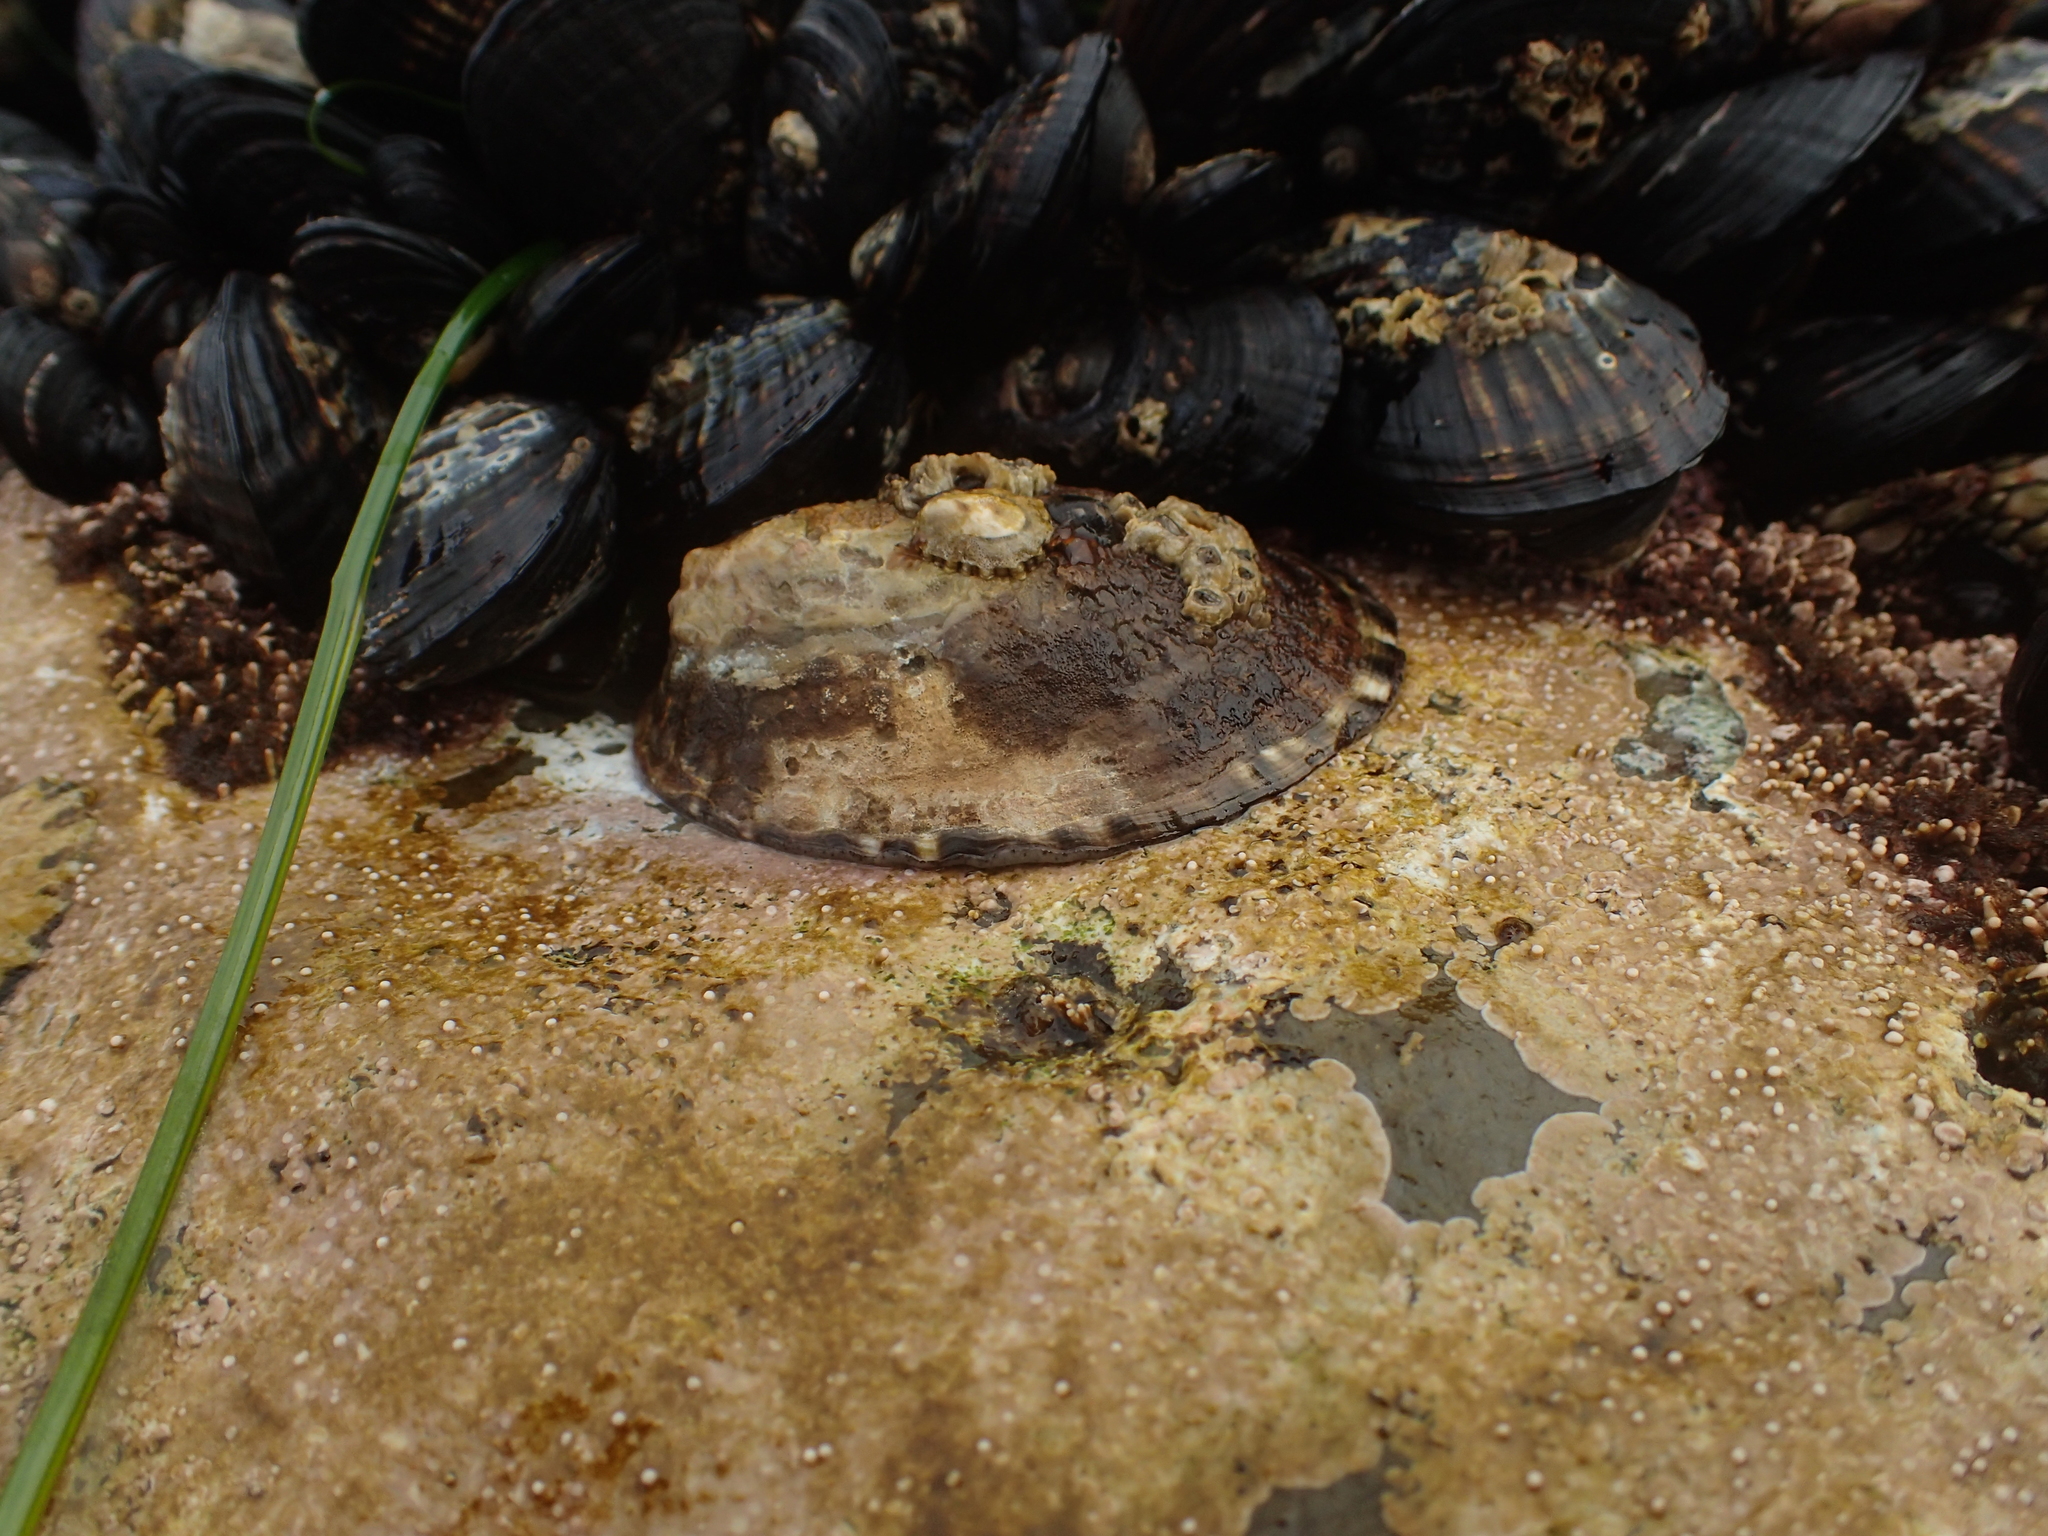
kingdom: Animalia
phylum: Mollusca
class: Gastropoda
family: Lottiidae
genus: Lottia
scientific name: Lottia gigantea
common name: Owl limpet
